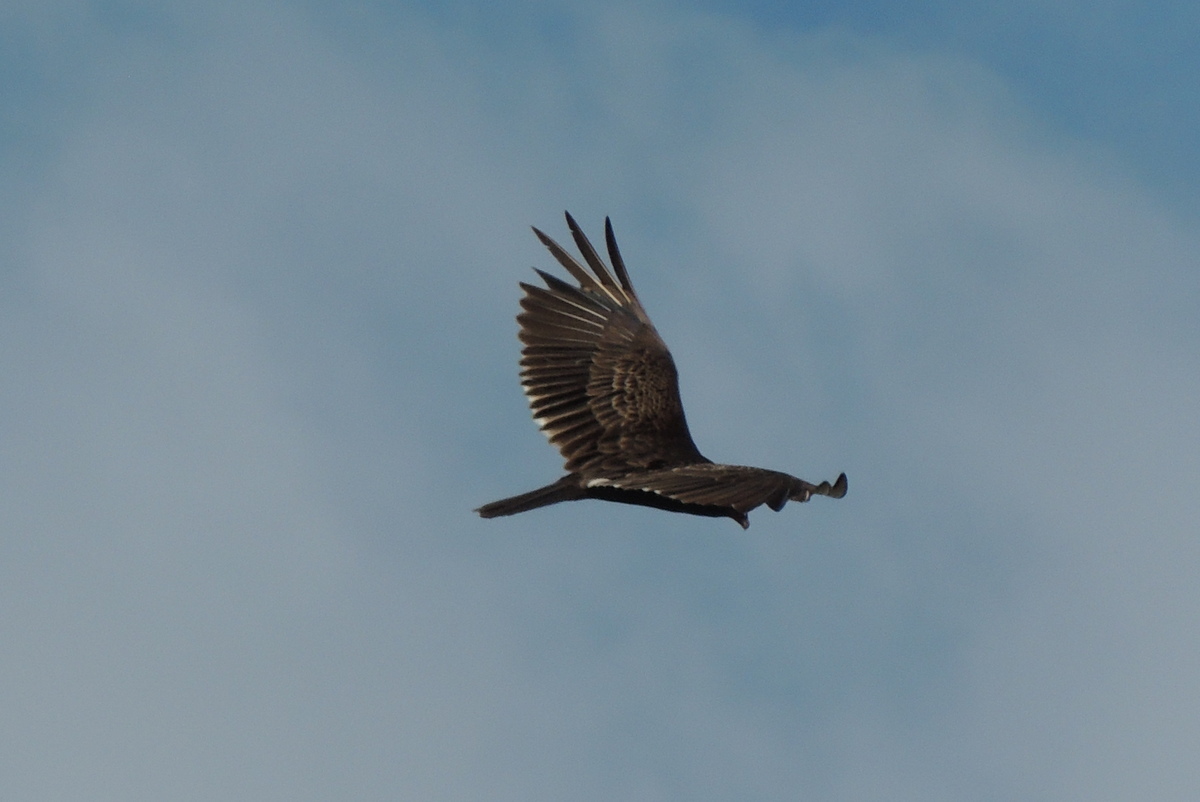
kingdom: Animalia
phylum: Chordata
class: Aves
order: Accipitriformes
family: Cathartidae
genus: Cathartes
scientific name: Cathartes aura
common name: Turkey vulture
